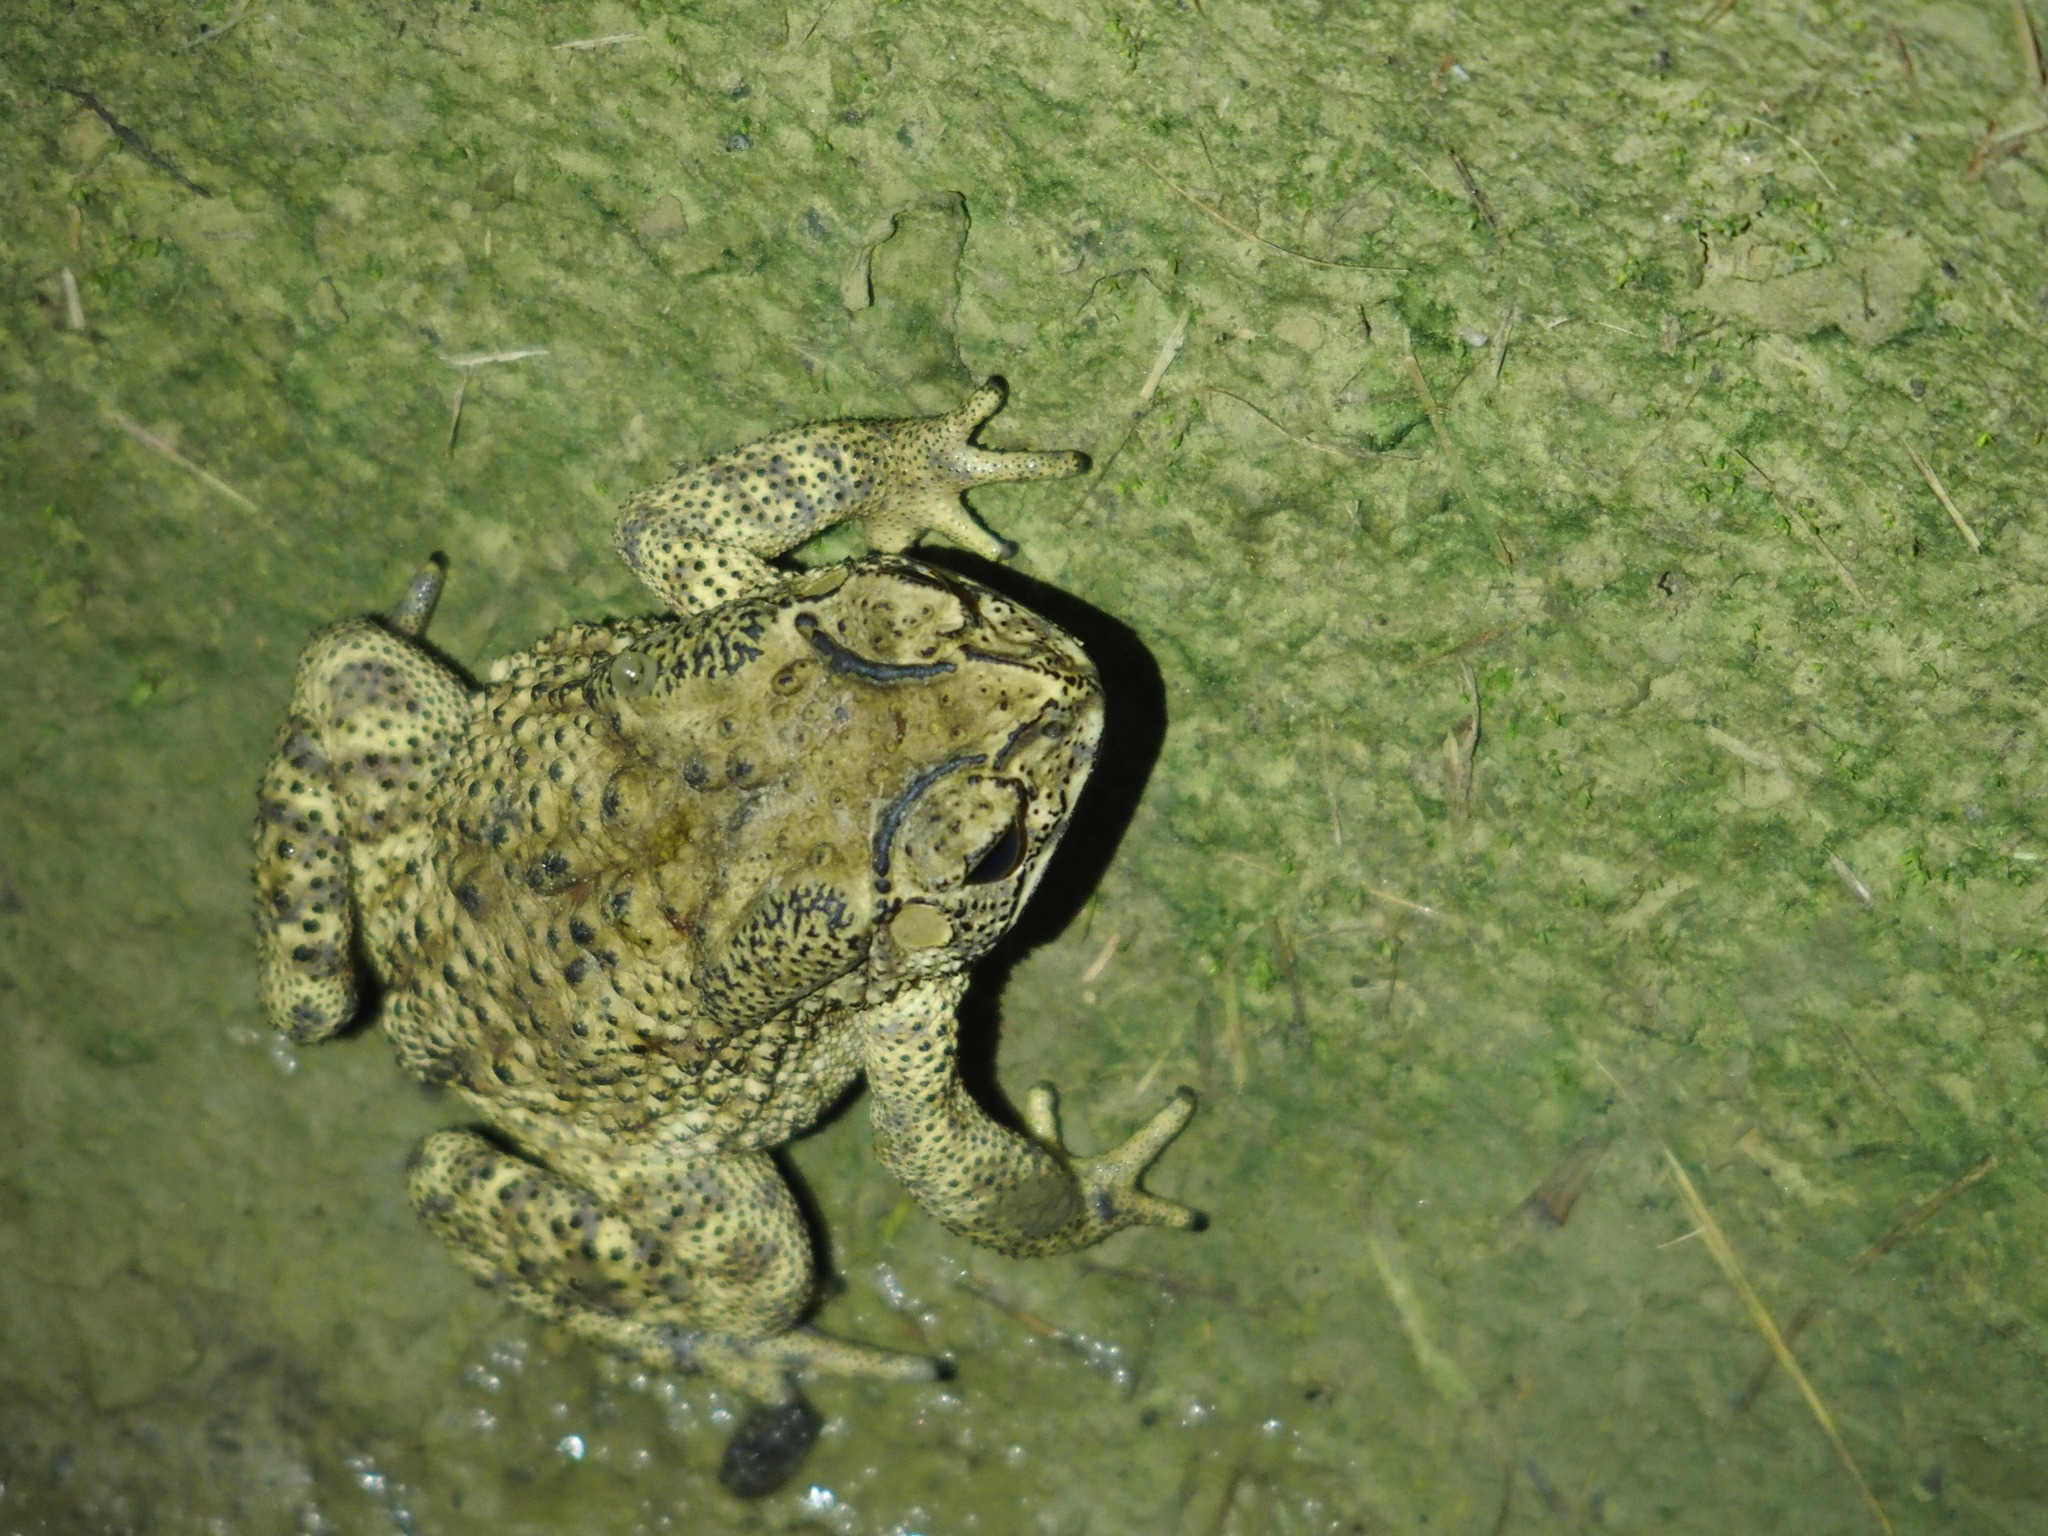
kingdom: Animalia
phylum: Chordata
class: Amphibia
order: Anura
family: Bufonidae
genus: Duttaphrynus
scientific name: Duttaphrynus melanostictus
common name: Common sunda toad
